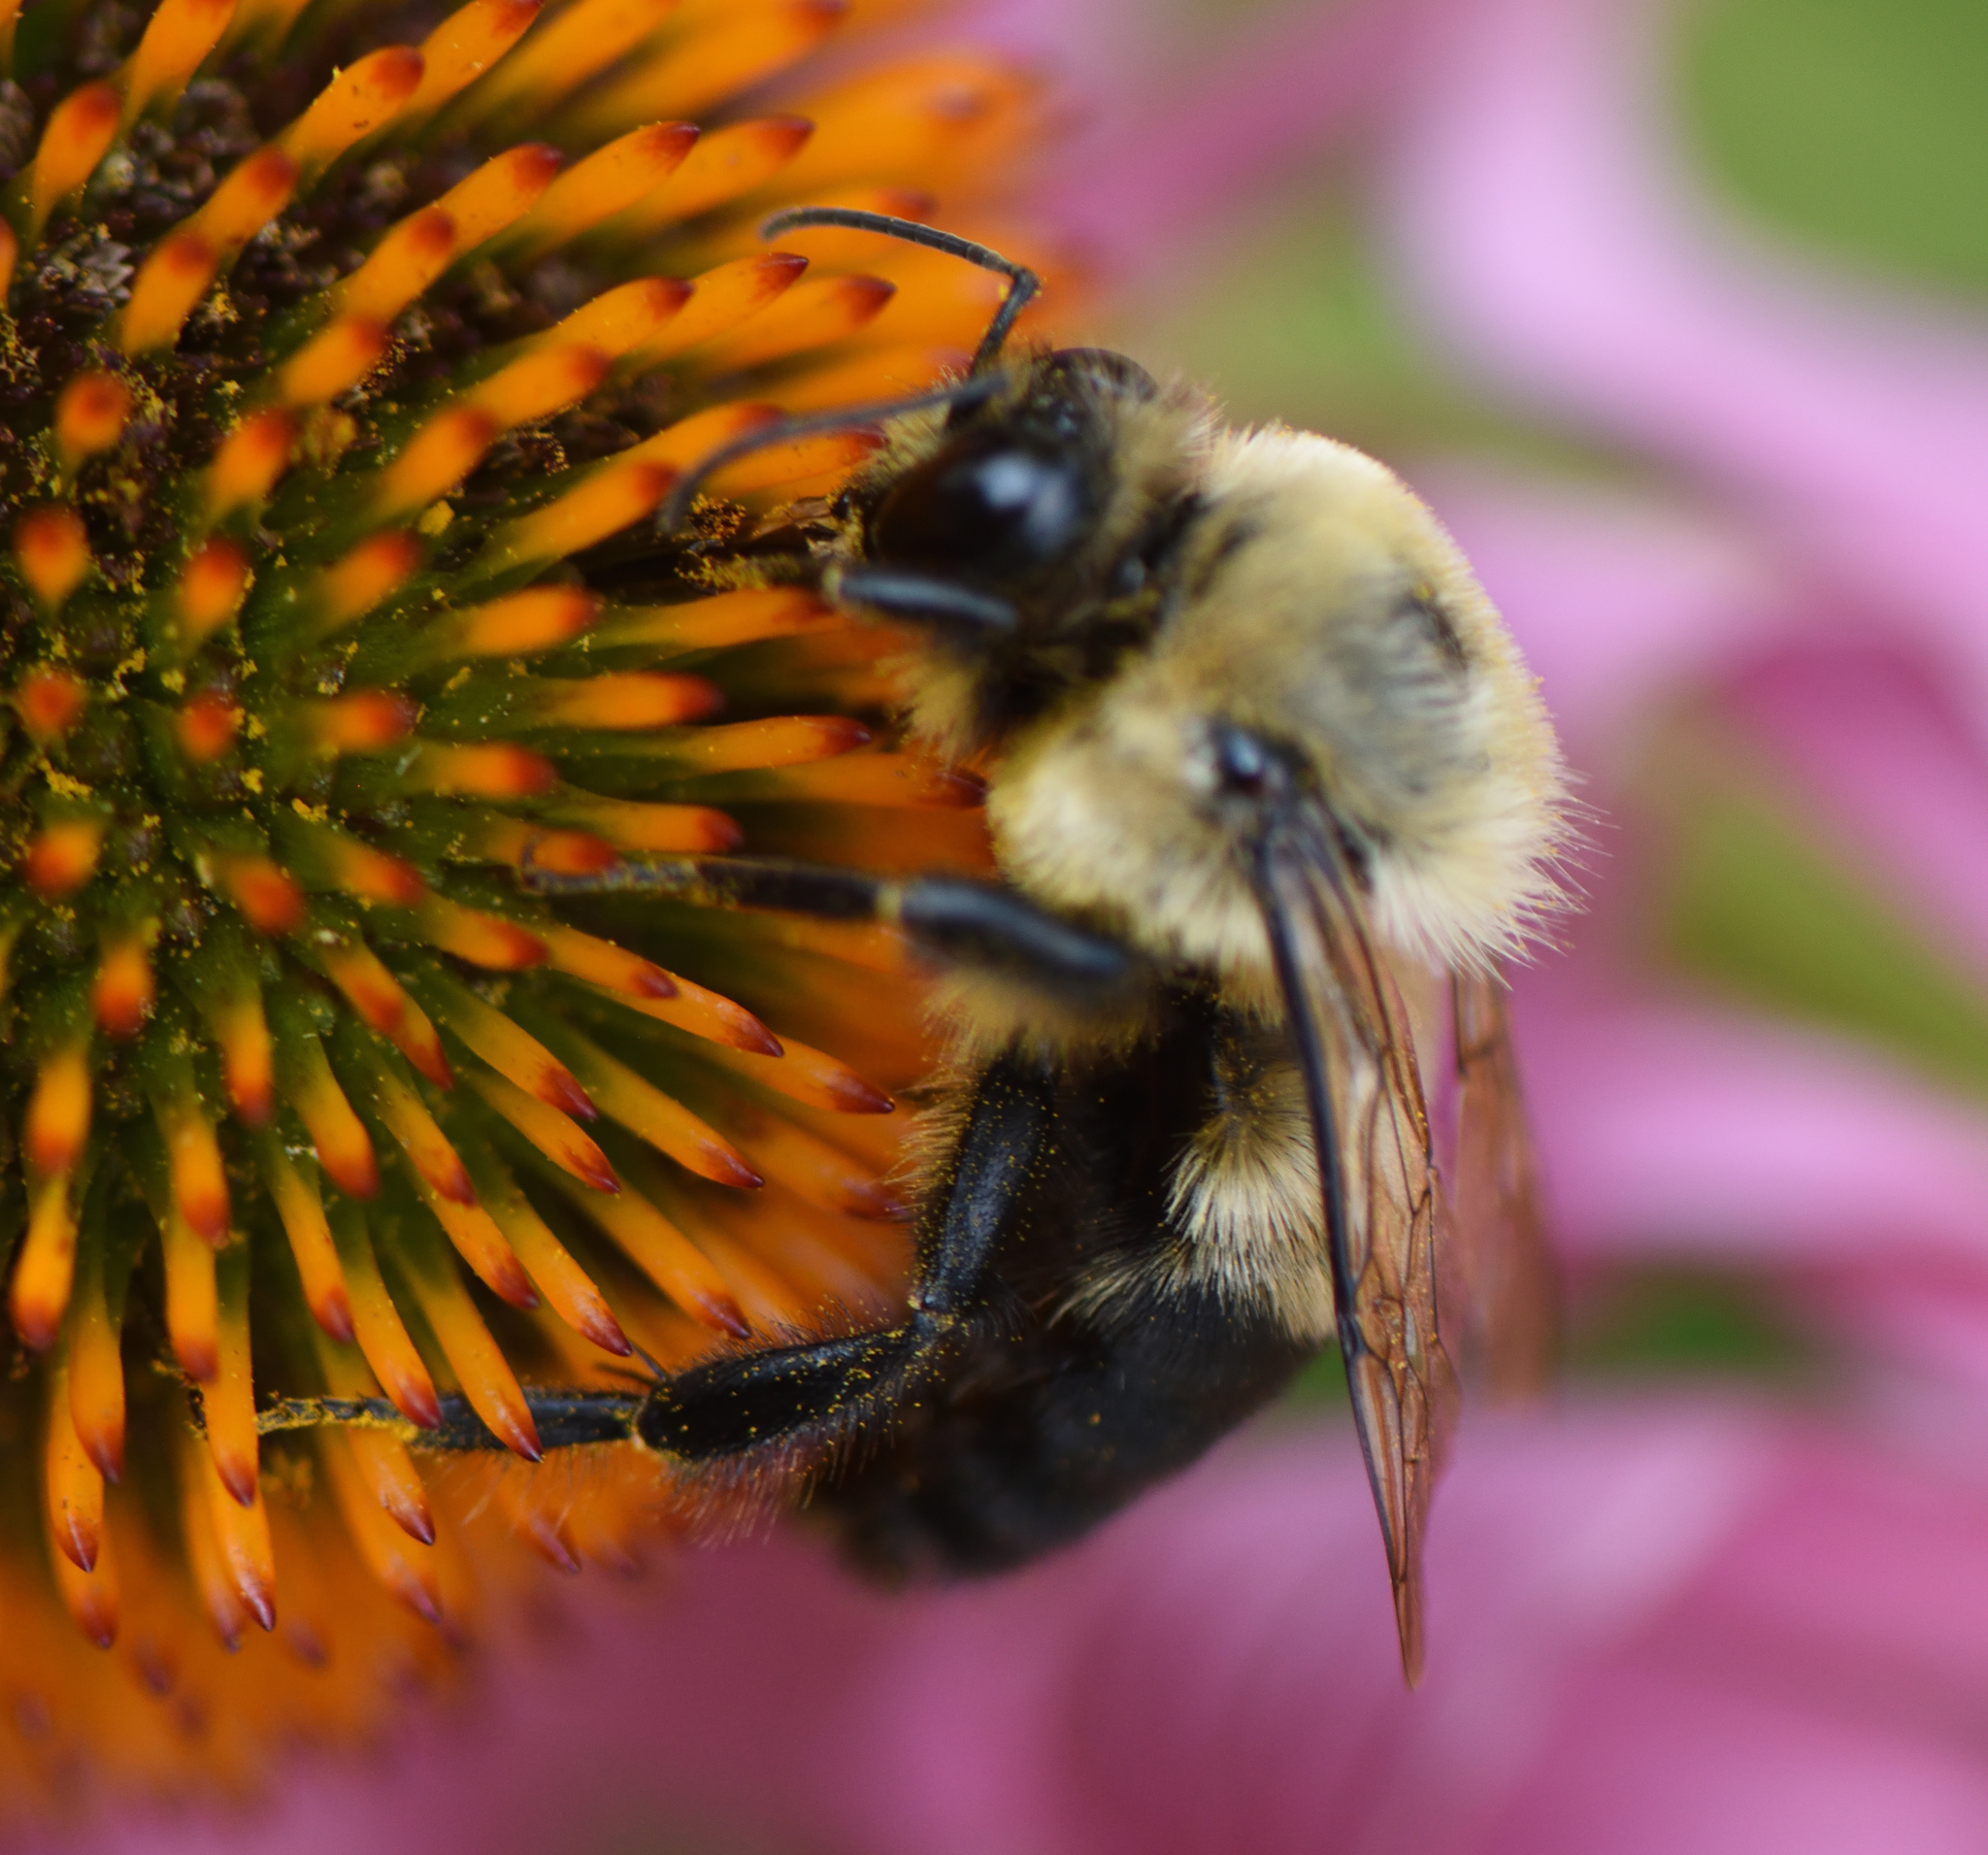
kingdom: Animalia
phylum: Arthropoda
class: Insecta
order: Hymenoptera
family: Apidae
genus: Bombus
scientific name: Bombus griseocollis
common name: Brown-belted bumble bee
